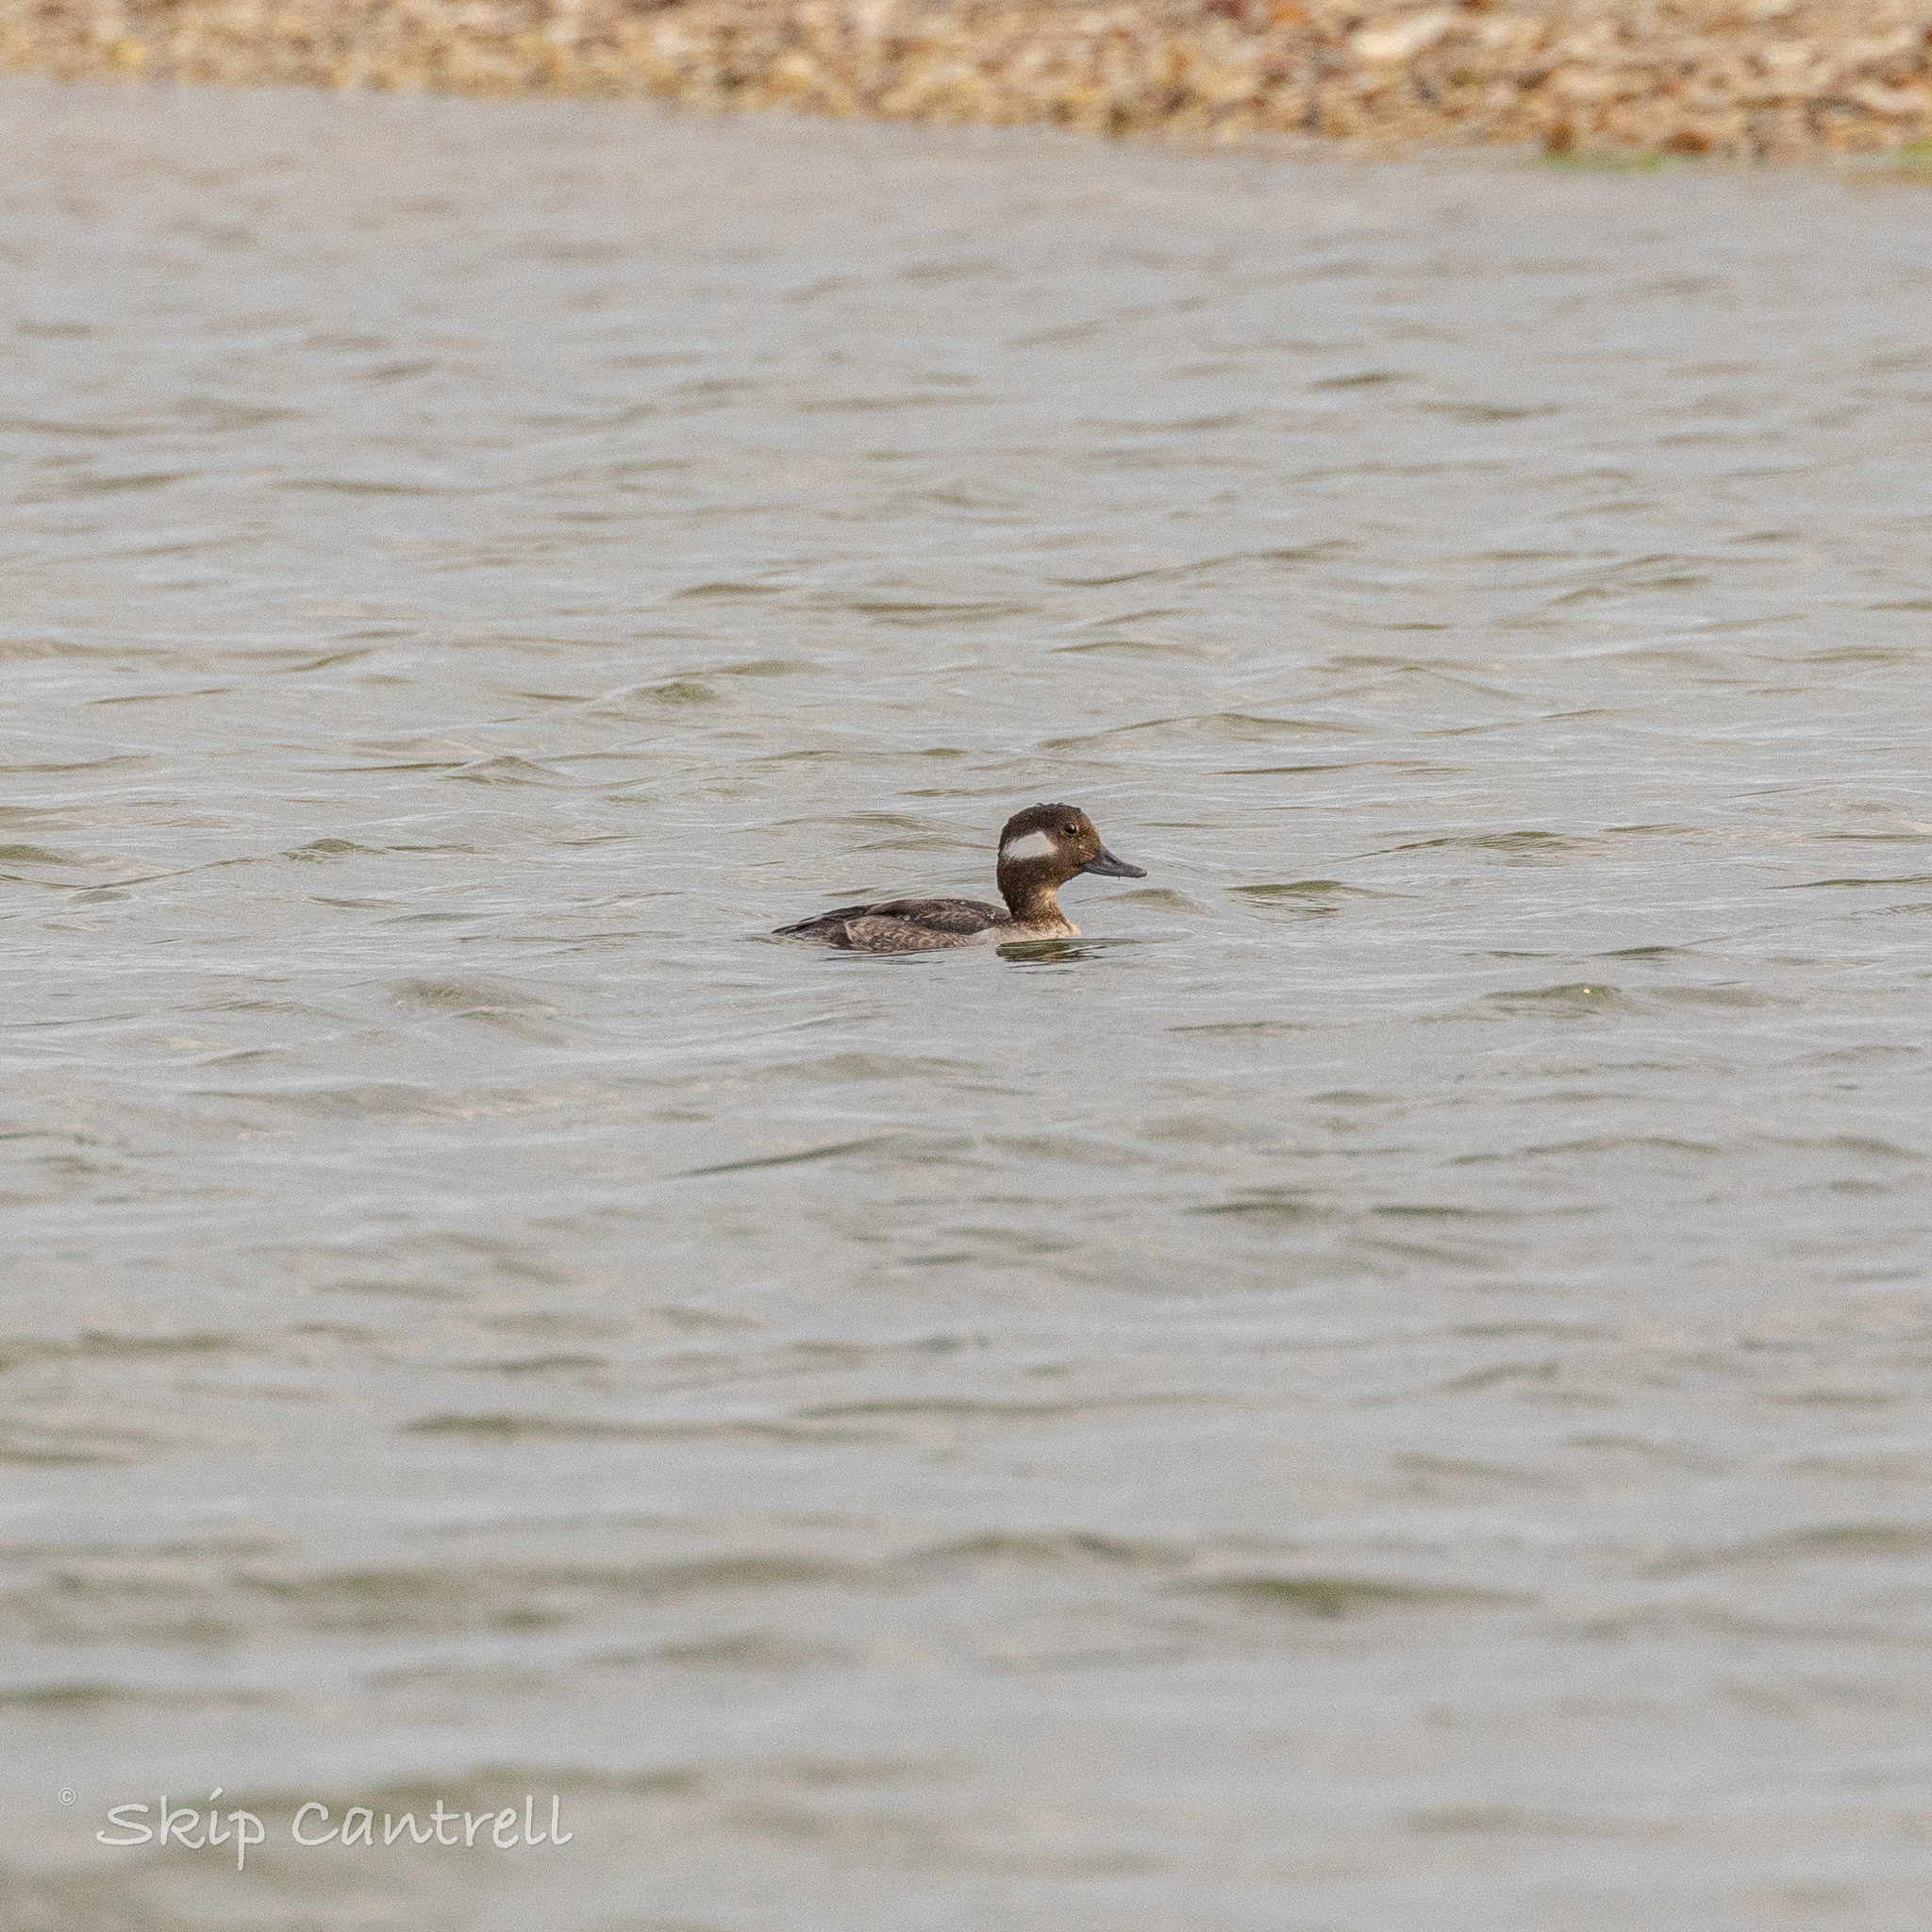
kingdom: Animalia
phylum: Chordata
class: Aves
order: Anseriformes
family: Anatidae
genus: Bucephala
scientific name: Bucephala albeola
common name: Bufflehead
